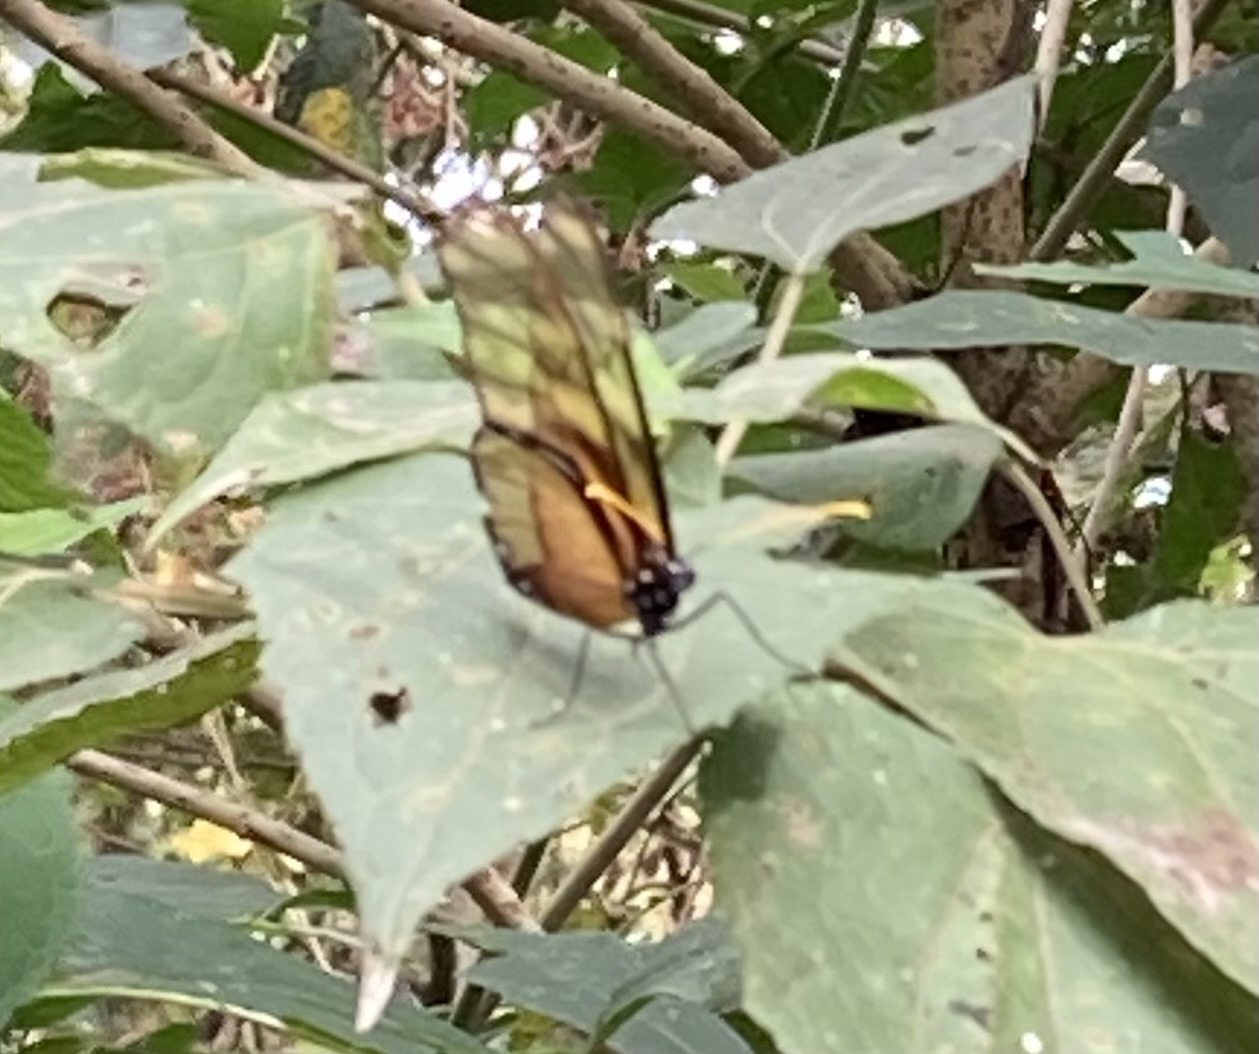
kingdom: Animalia
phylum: Arthropoda
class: Insecta
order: Lepidoptera
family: Nymphalidae
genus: Dircenna
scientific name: Dircenna klugii
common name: Klug’s clearwing
